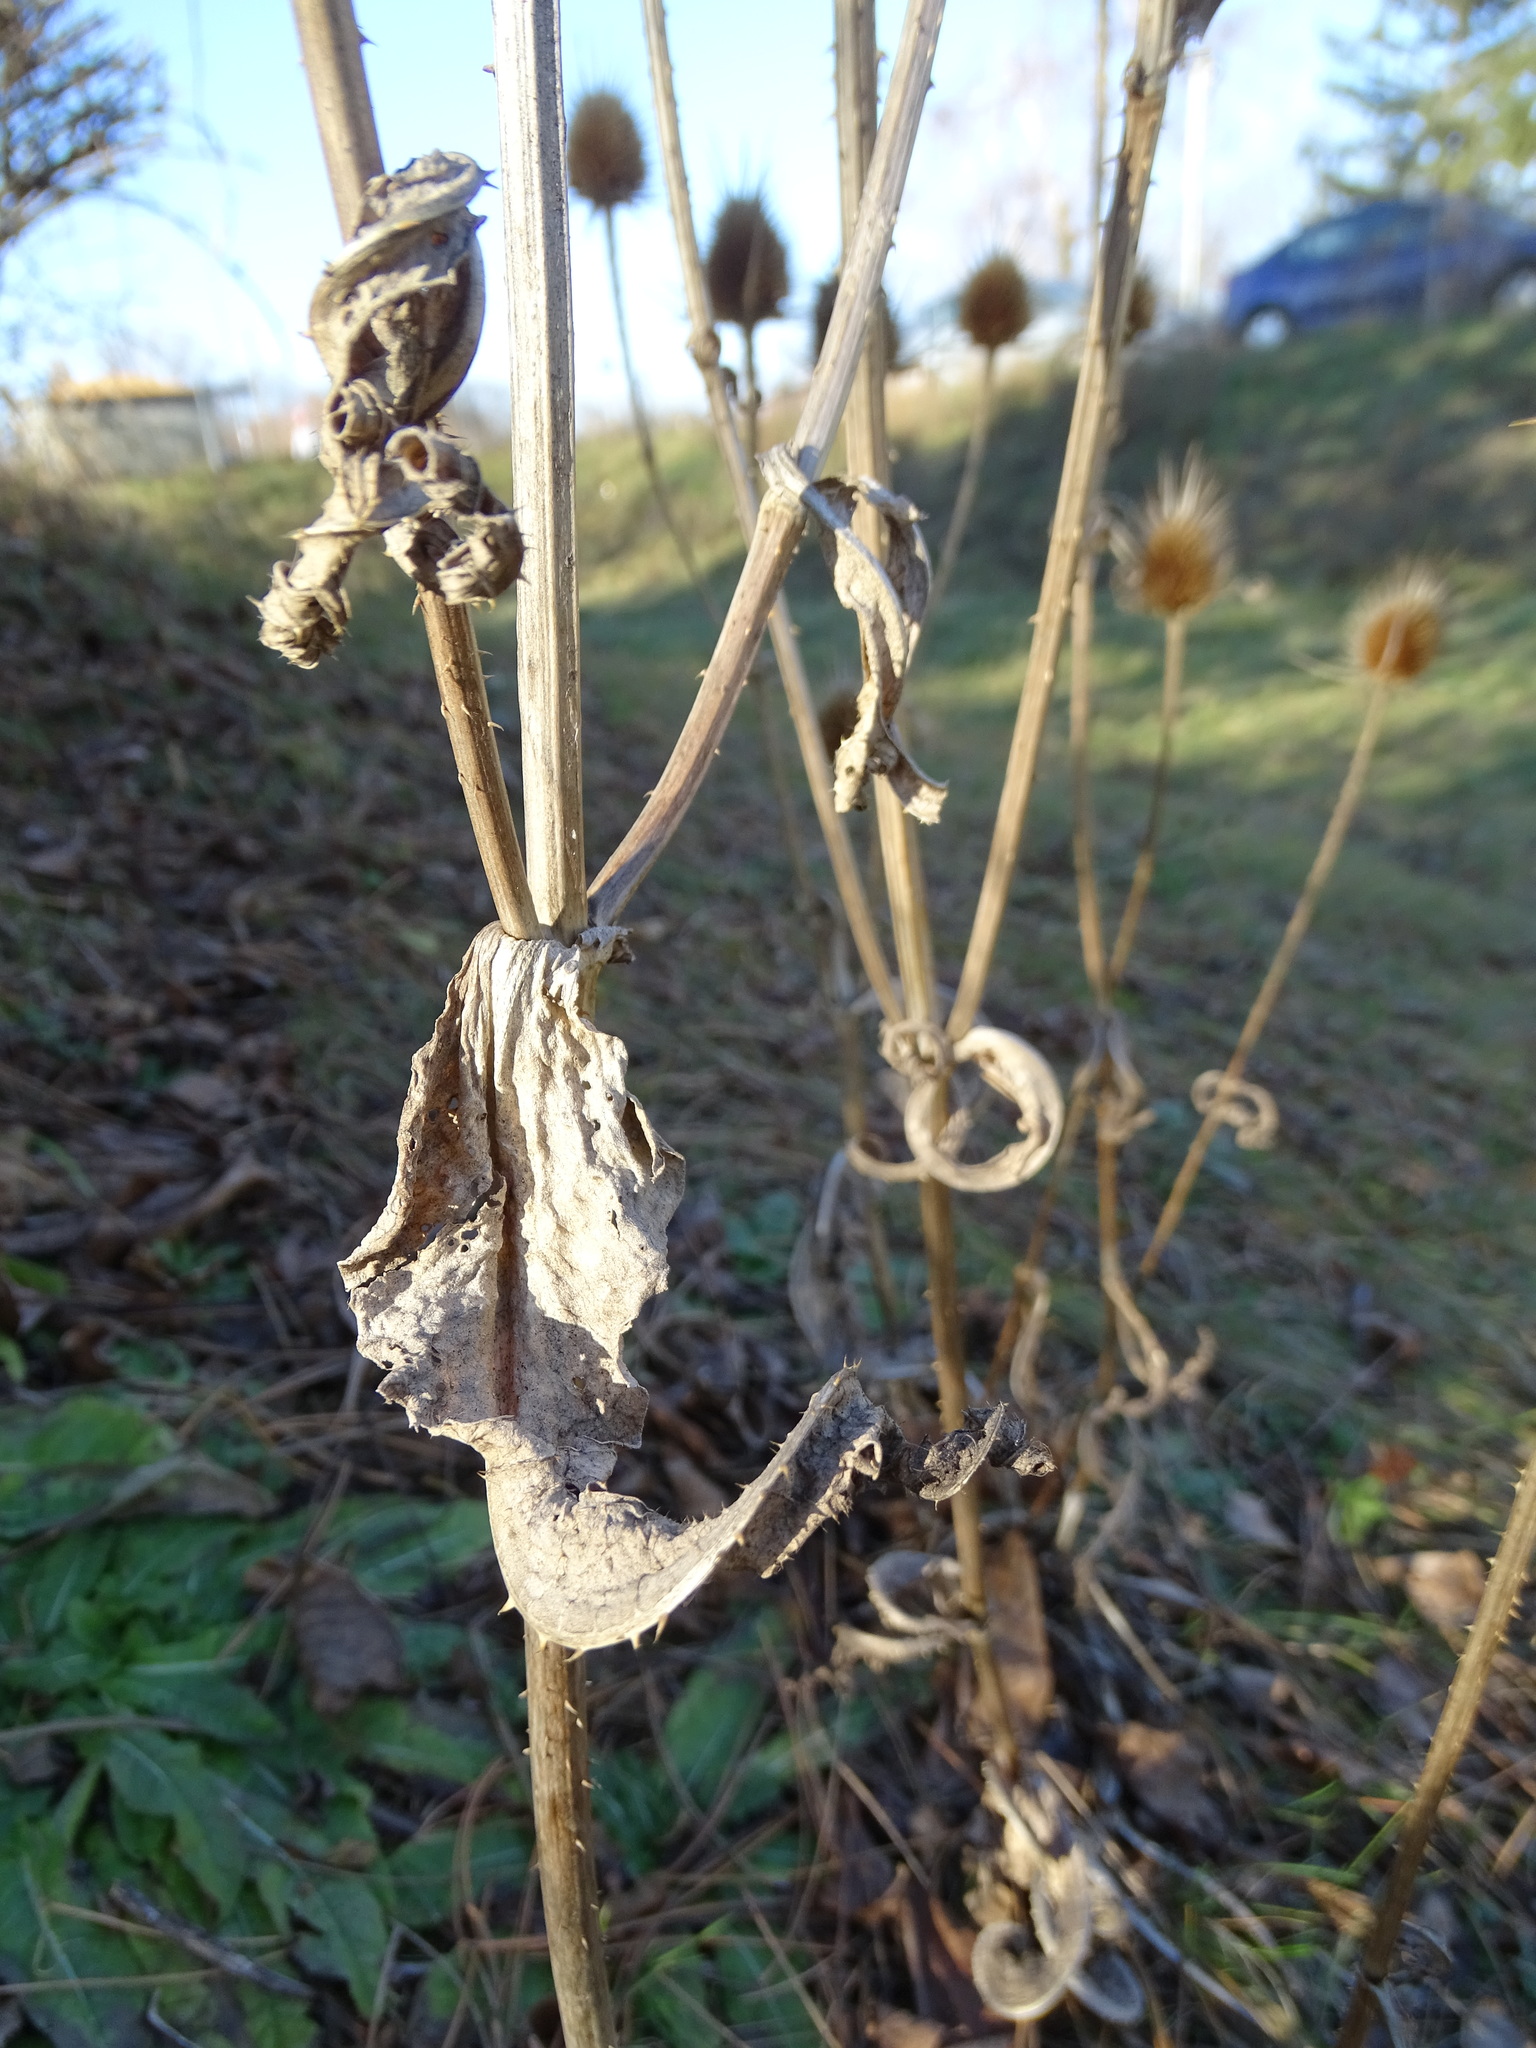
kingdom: Plantae
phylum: Tracheophyta
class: Magnoliopsida
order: Dipsacales
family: Caprifoliaceae
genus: Dipsacus
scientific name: Dipsacus fullonum
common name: Teasel
